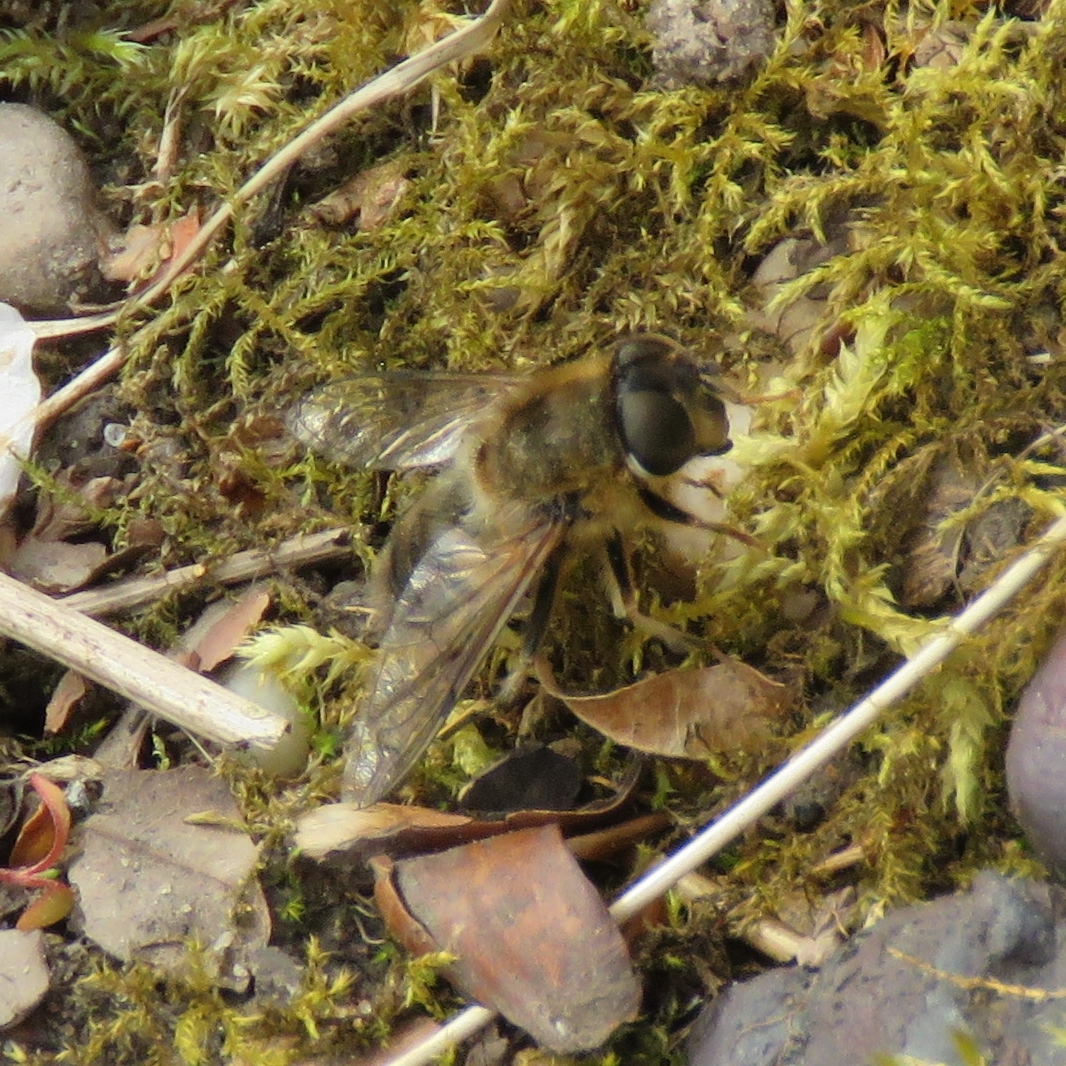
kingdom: Animalia
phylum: Arthropoda
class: Insecta
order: Diptera
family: Syrphidae
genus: Eristalis
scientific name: Eristalis pertinax
